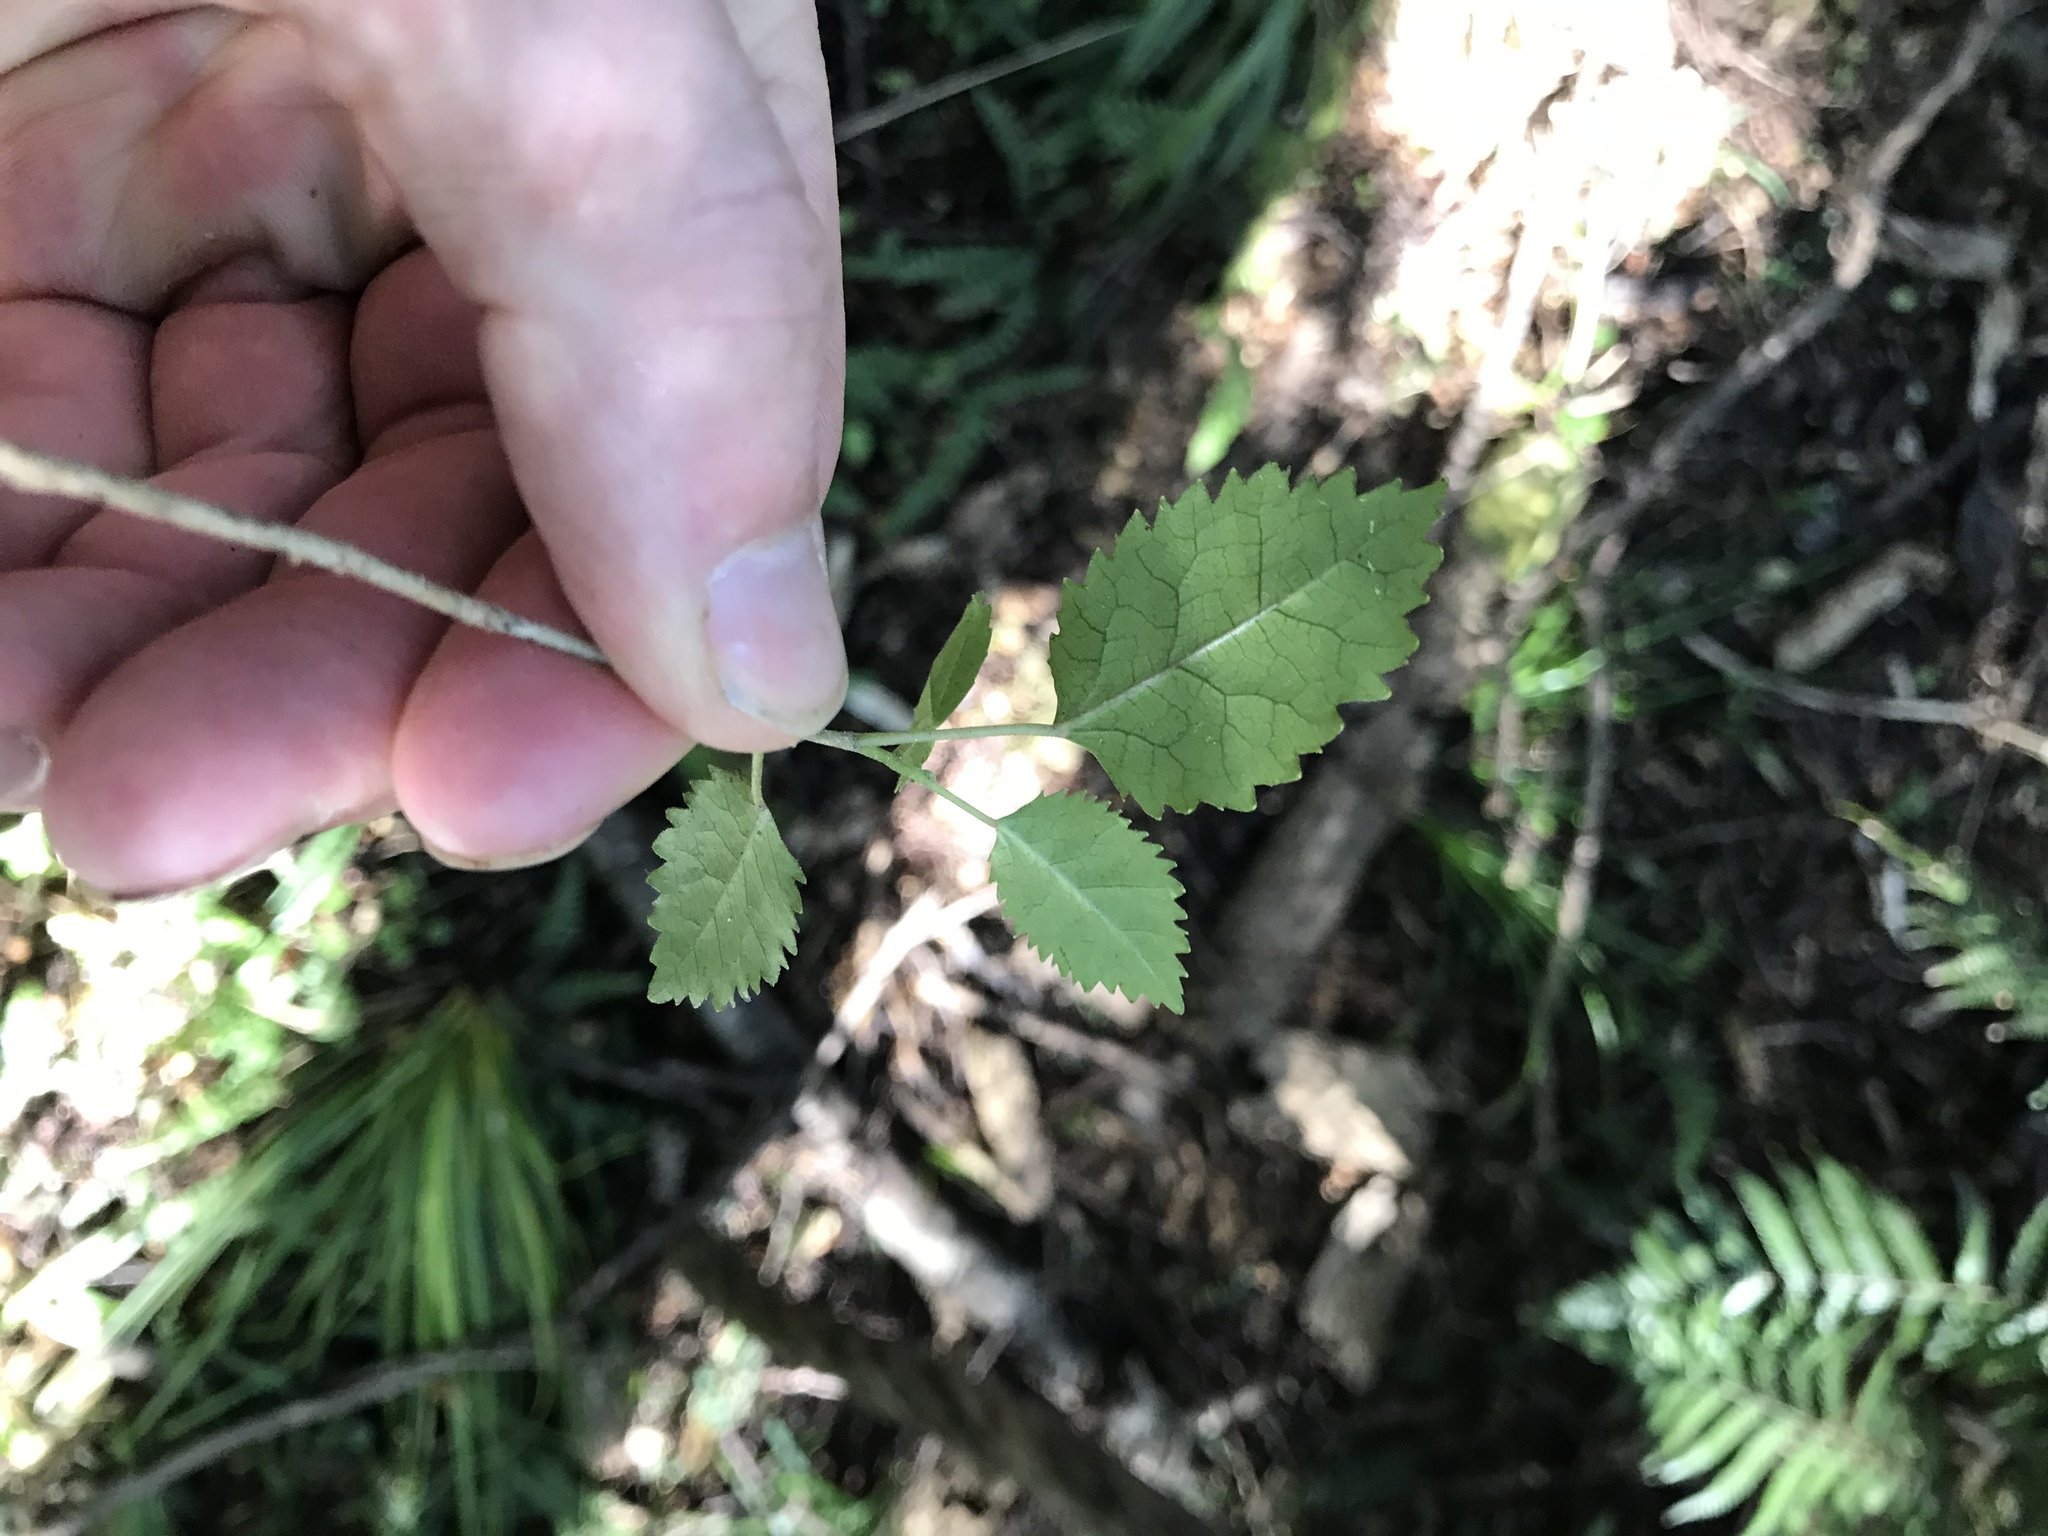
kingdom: Plantae
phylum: Tracheophyta
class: Magnoliopsida
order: Malvales
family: Malvaceae
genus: Hoheria
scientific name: Hoheria populnea
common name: Lacebark
